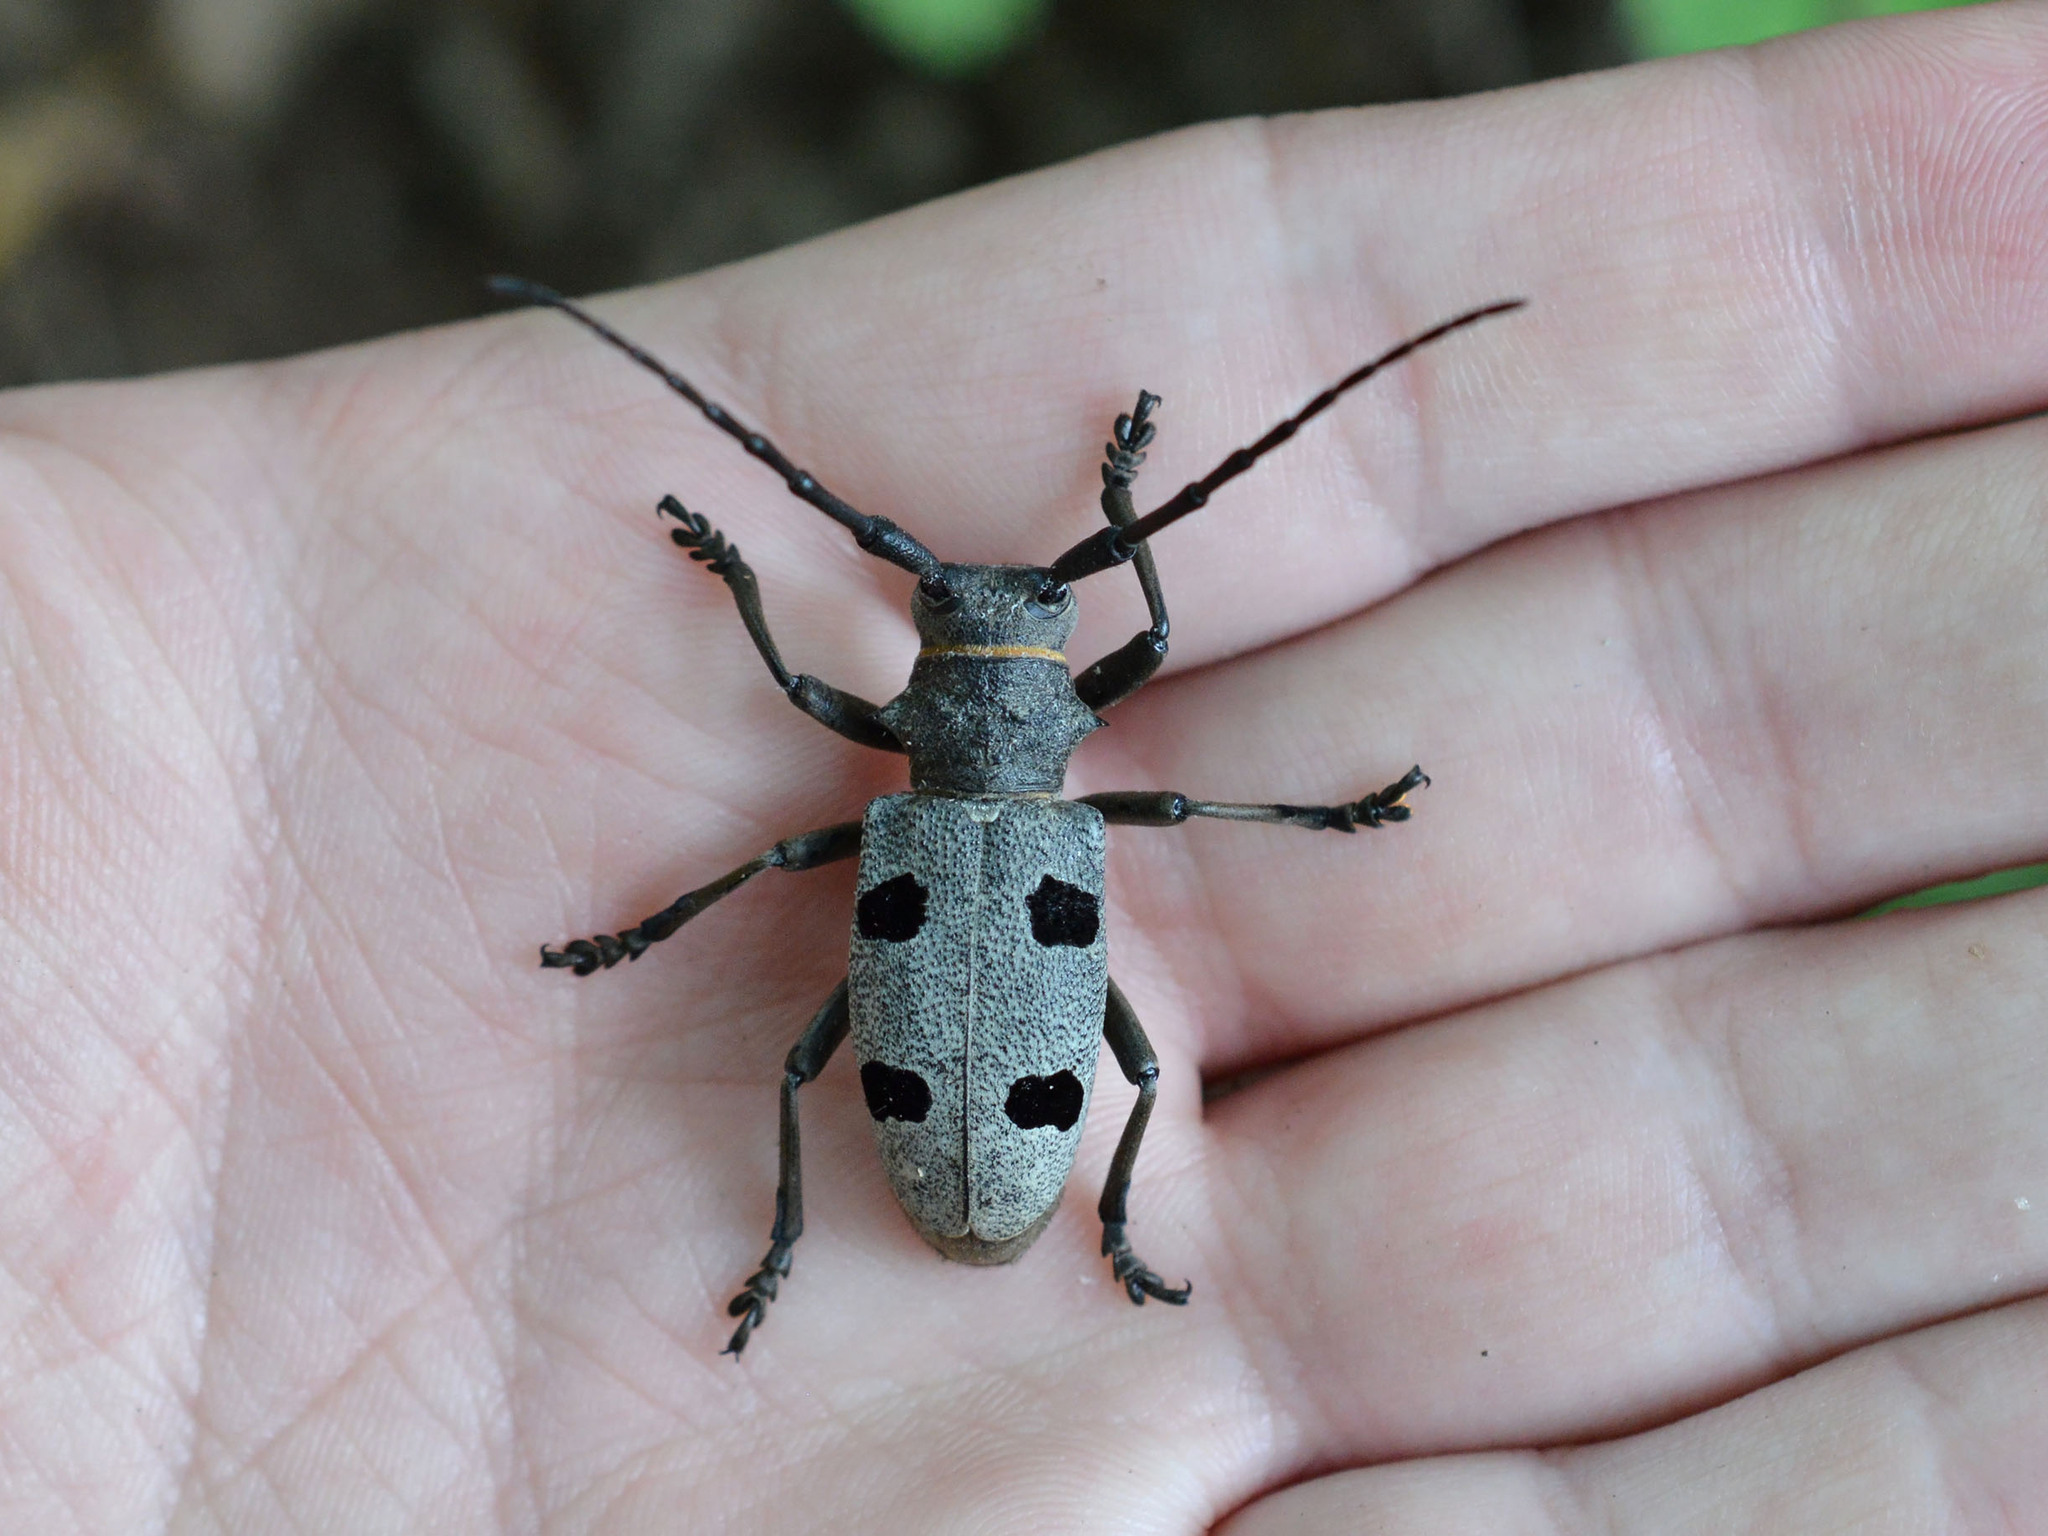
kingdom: Animalia
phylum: Arthropoda
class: Insecta
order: Coleoptera
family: Cerambycidae
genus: Morimus
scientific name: Morimus funereus
